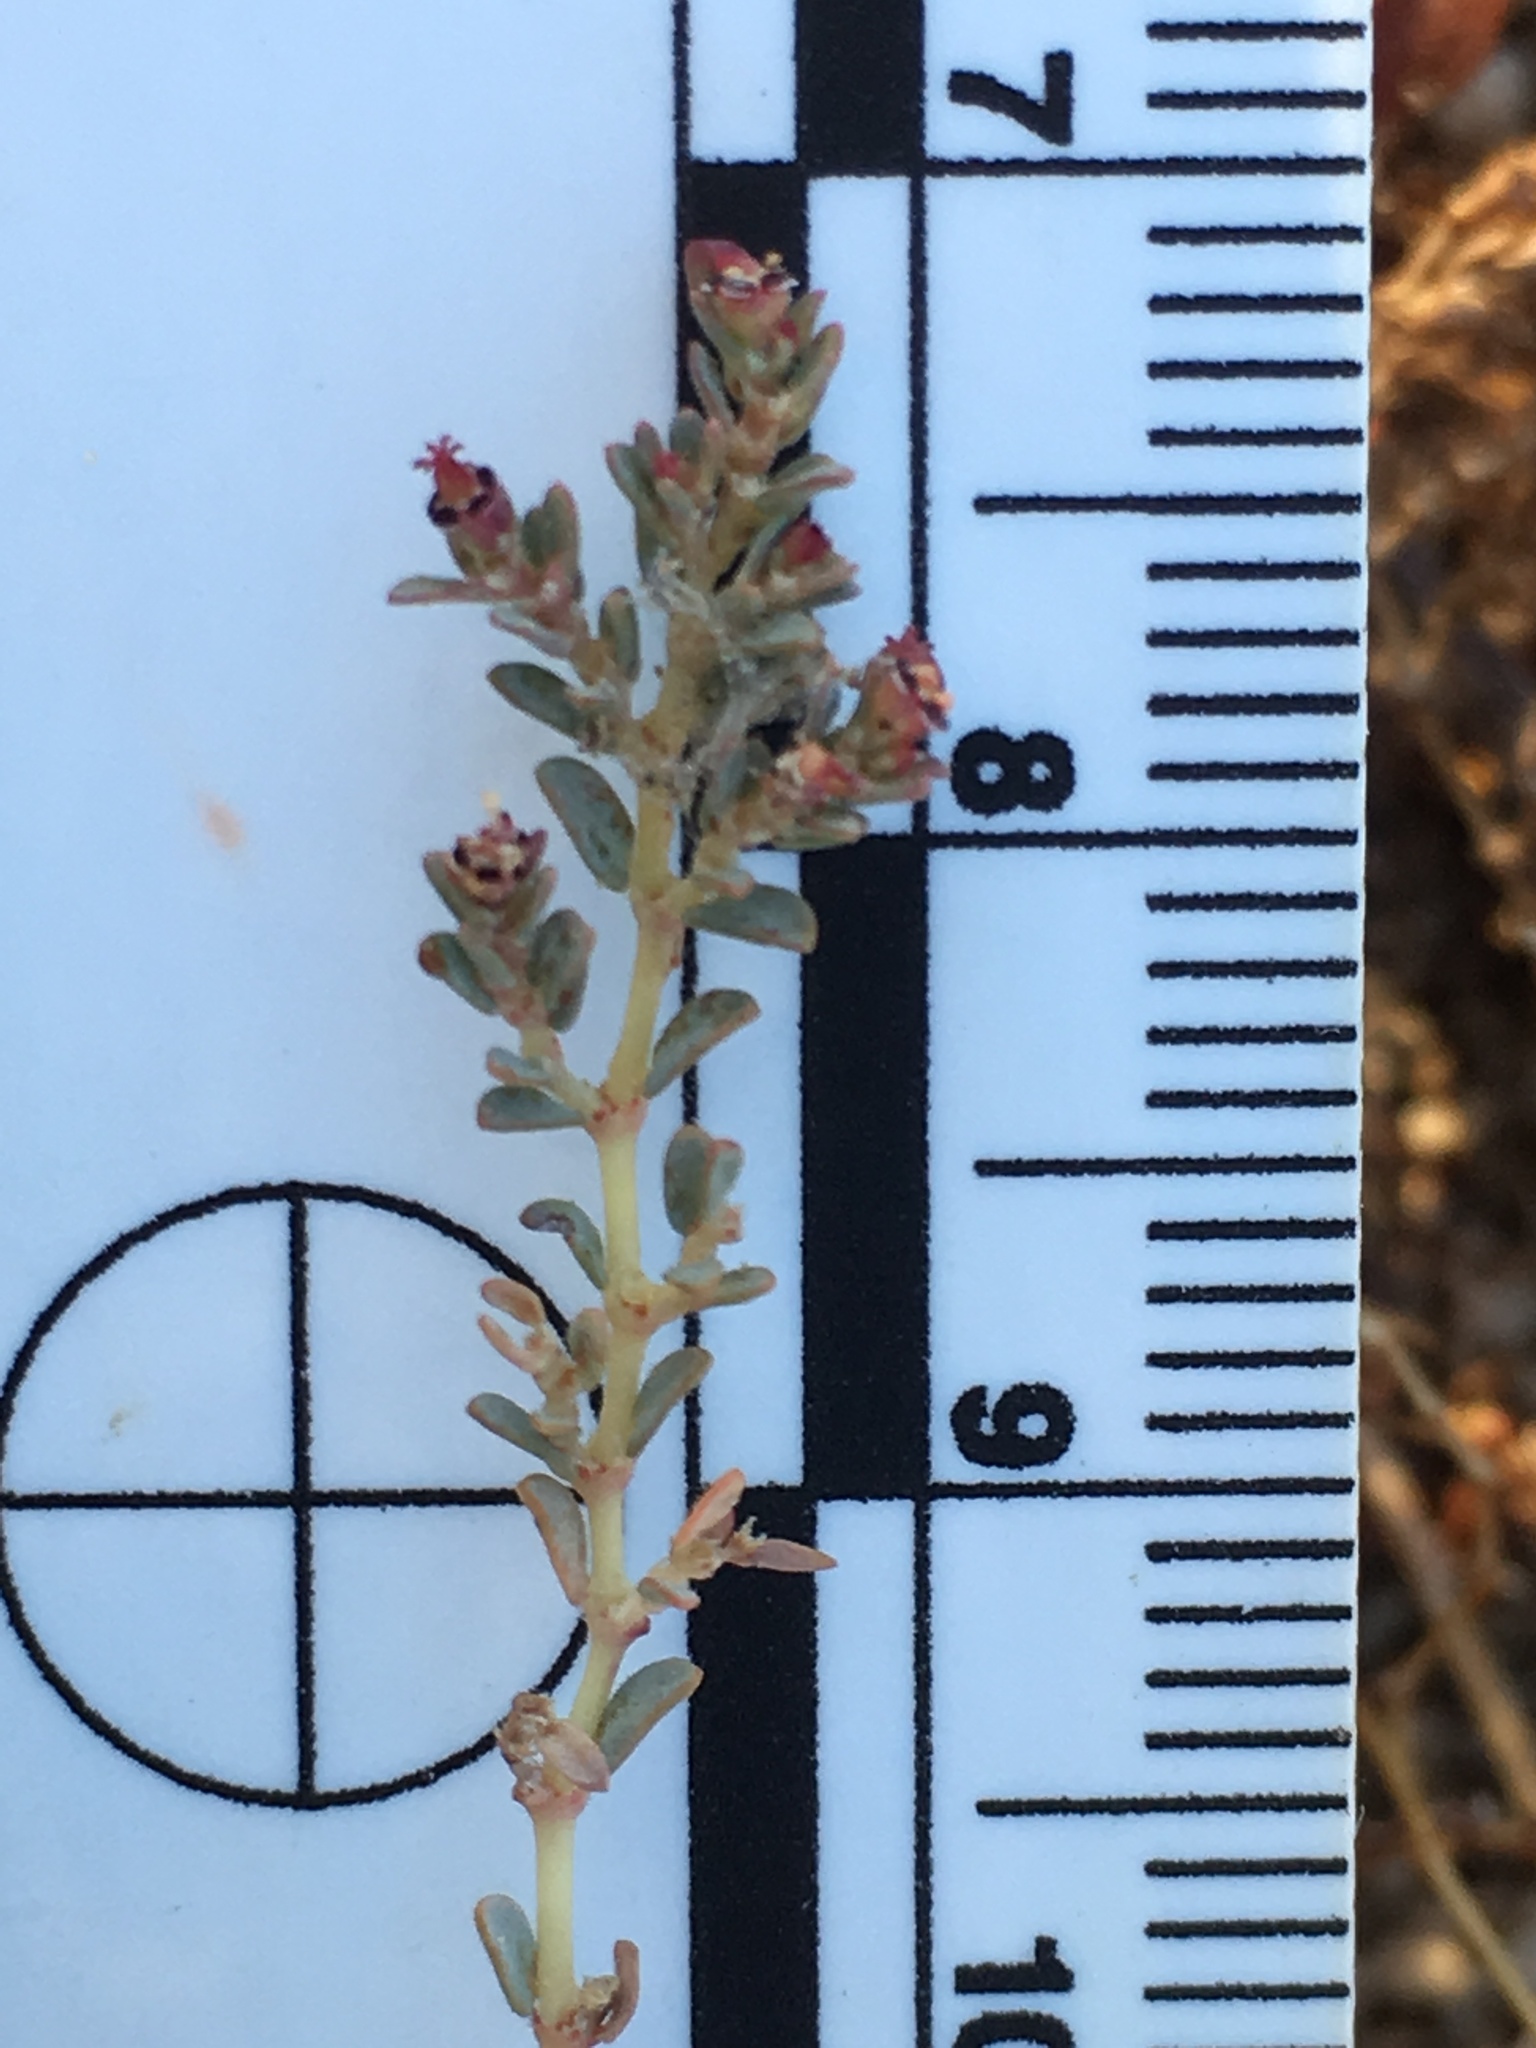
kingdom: Plantae
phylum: Tracheophyta
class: Magnoliopsida
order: Malpighiales
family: Euphorbiaceae
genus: Euphorbia
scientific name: Euphorbia polycarpa
